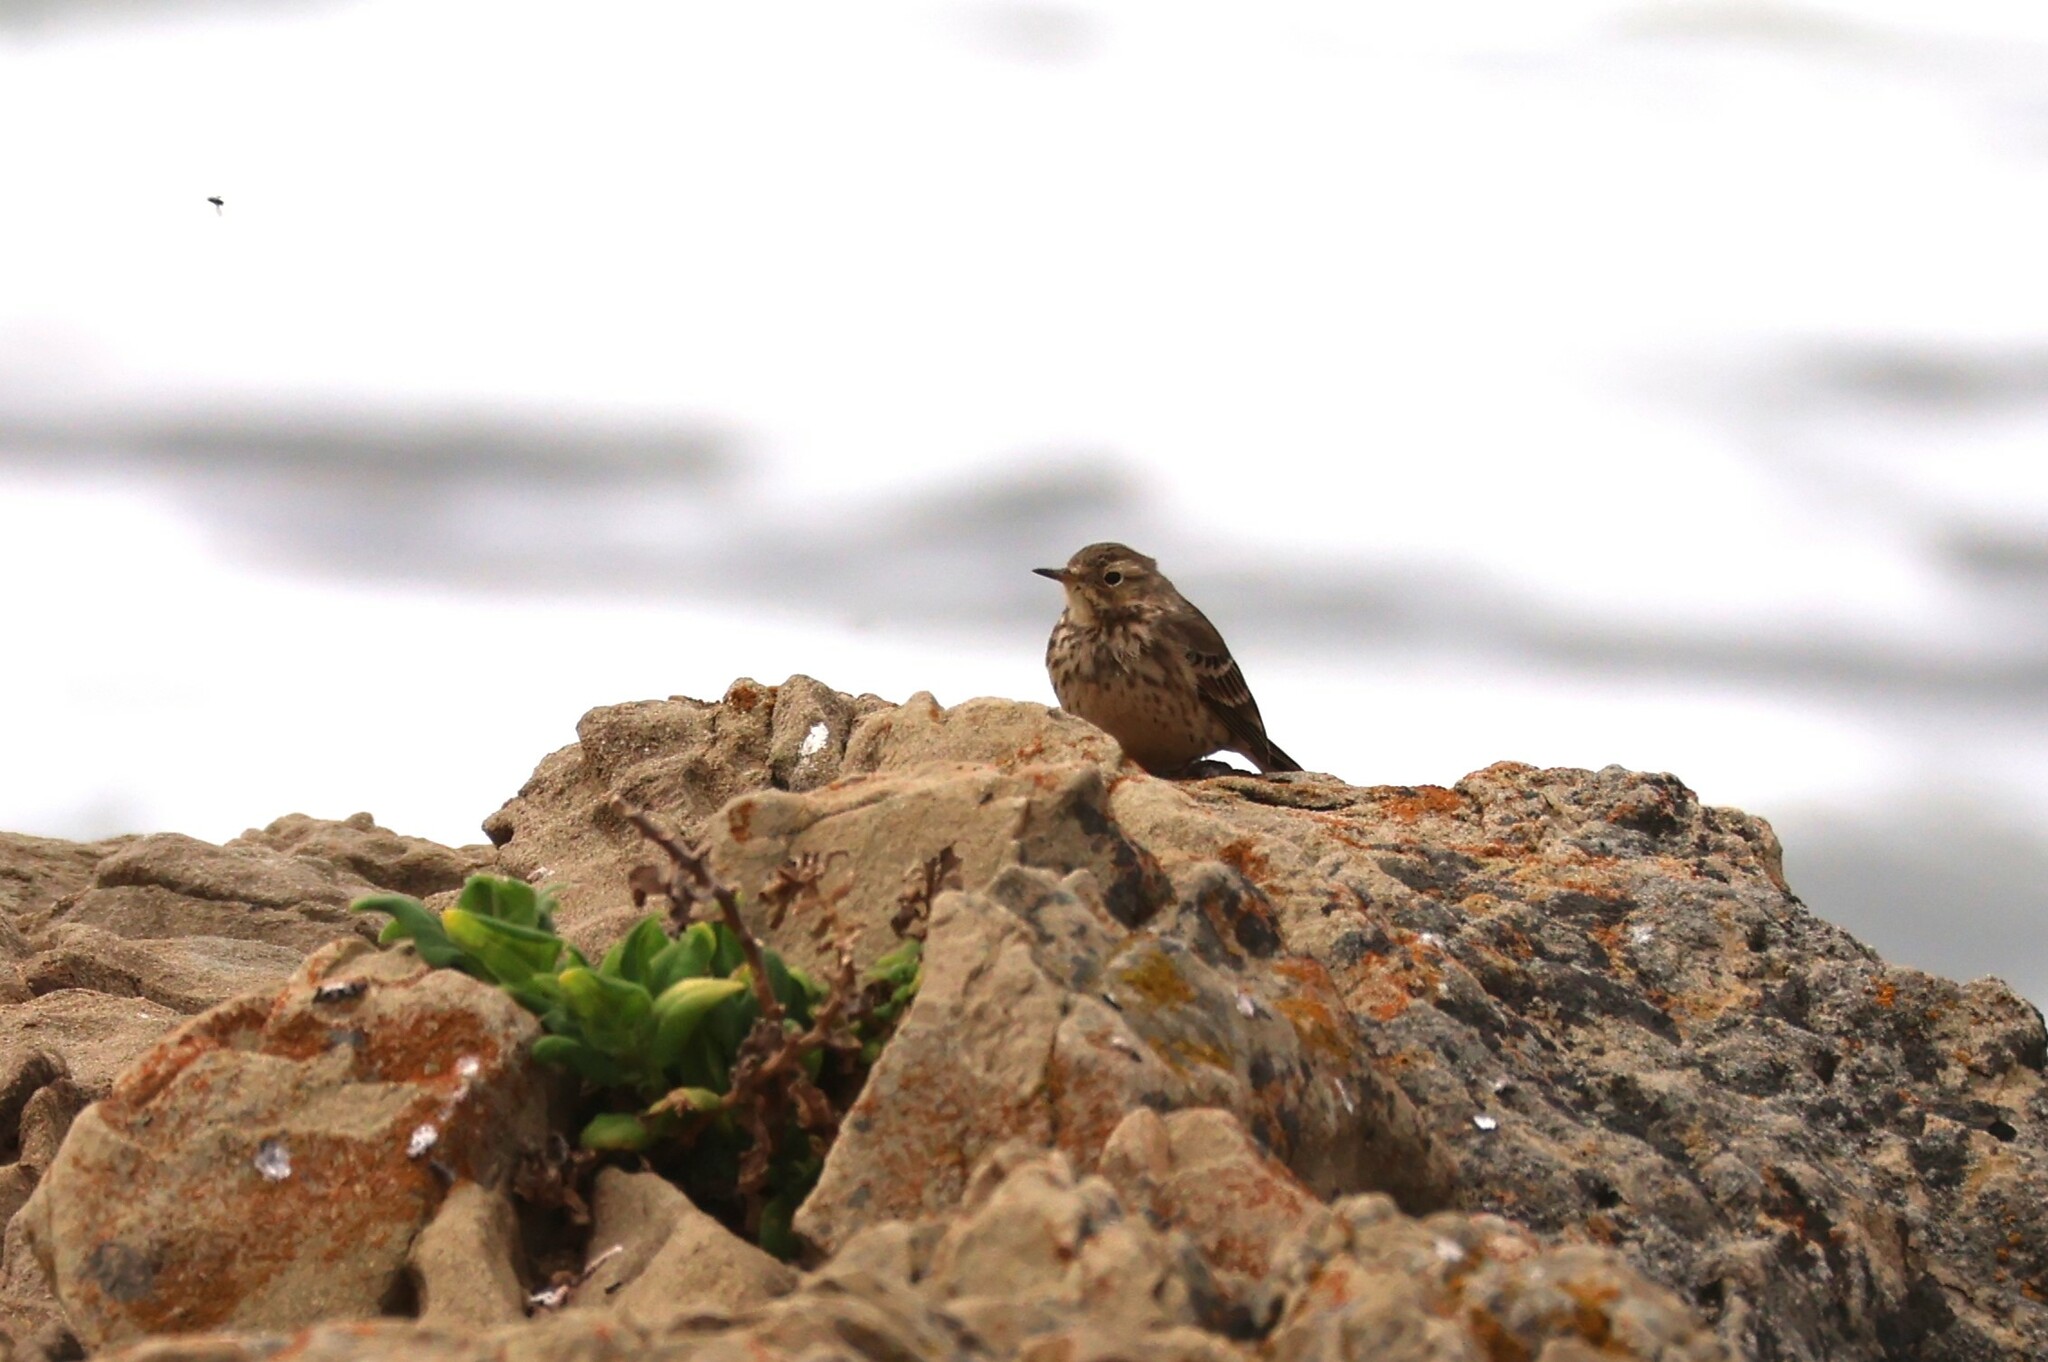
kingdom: Animalia
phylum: Chordata
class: Aves
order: Passeriformes
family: Motacillidae
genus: Anthus
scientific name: Anthus rubescens
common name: Buff-bellied pipit
